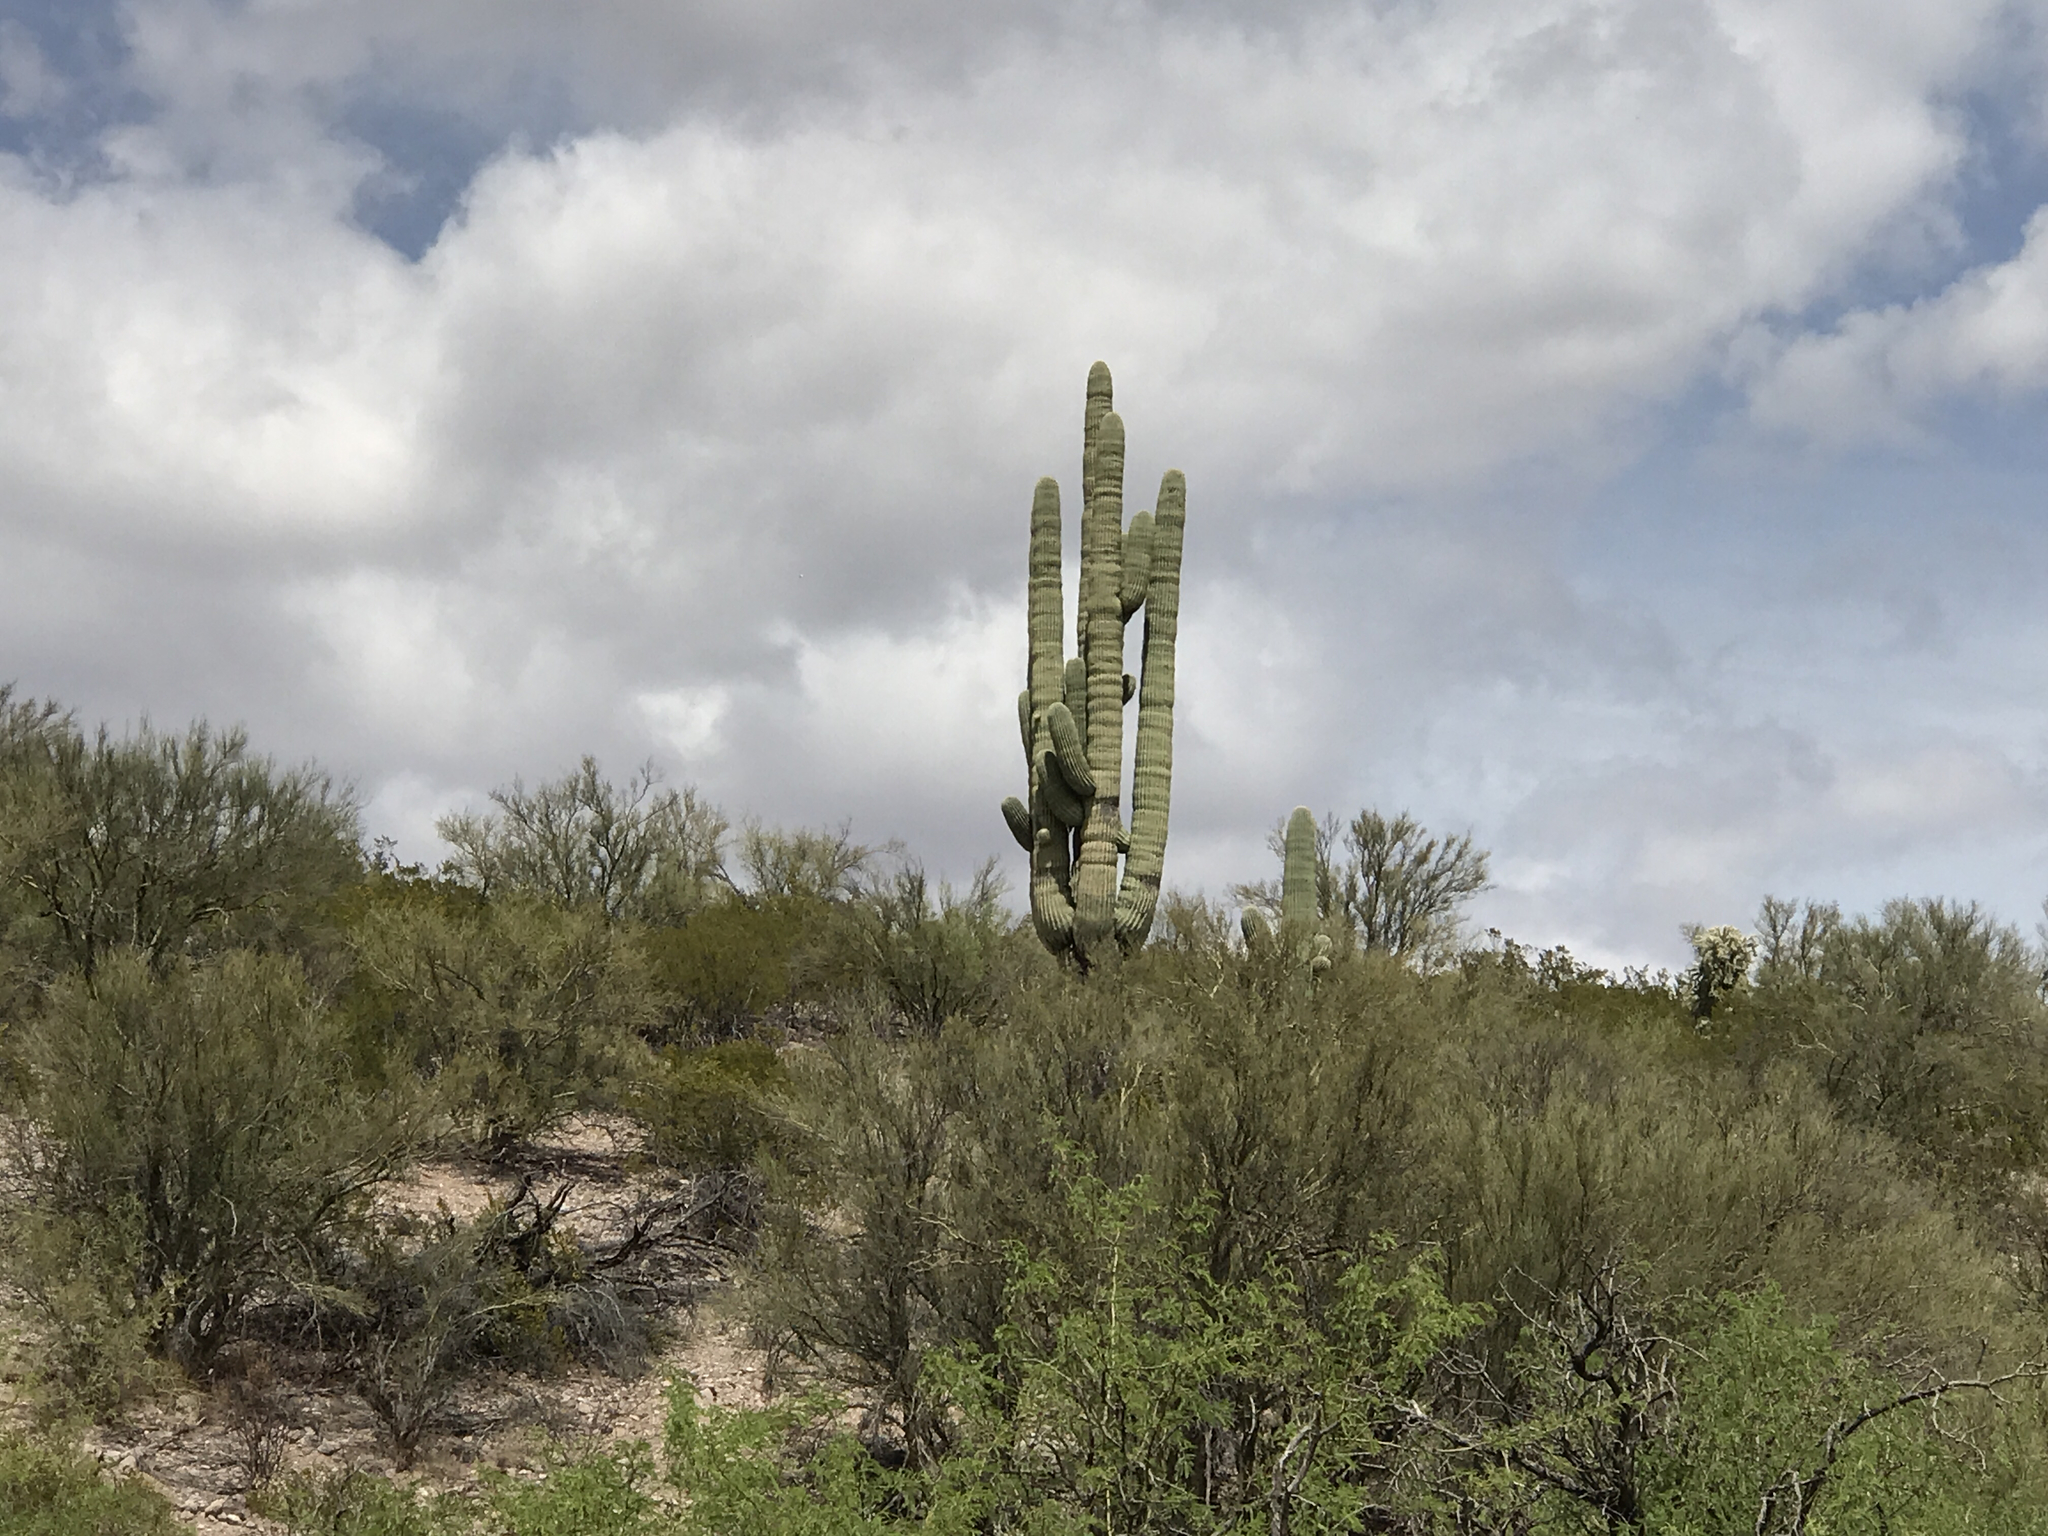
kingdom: Plantae
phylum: Tracheophyta
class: Magnoliopsida
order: Caryophyllales
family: Cactaceae
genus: Carnegiea
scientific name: Carnegiea gigantea
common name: Saguaro
